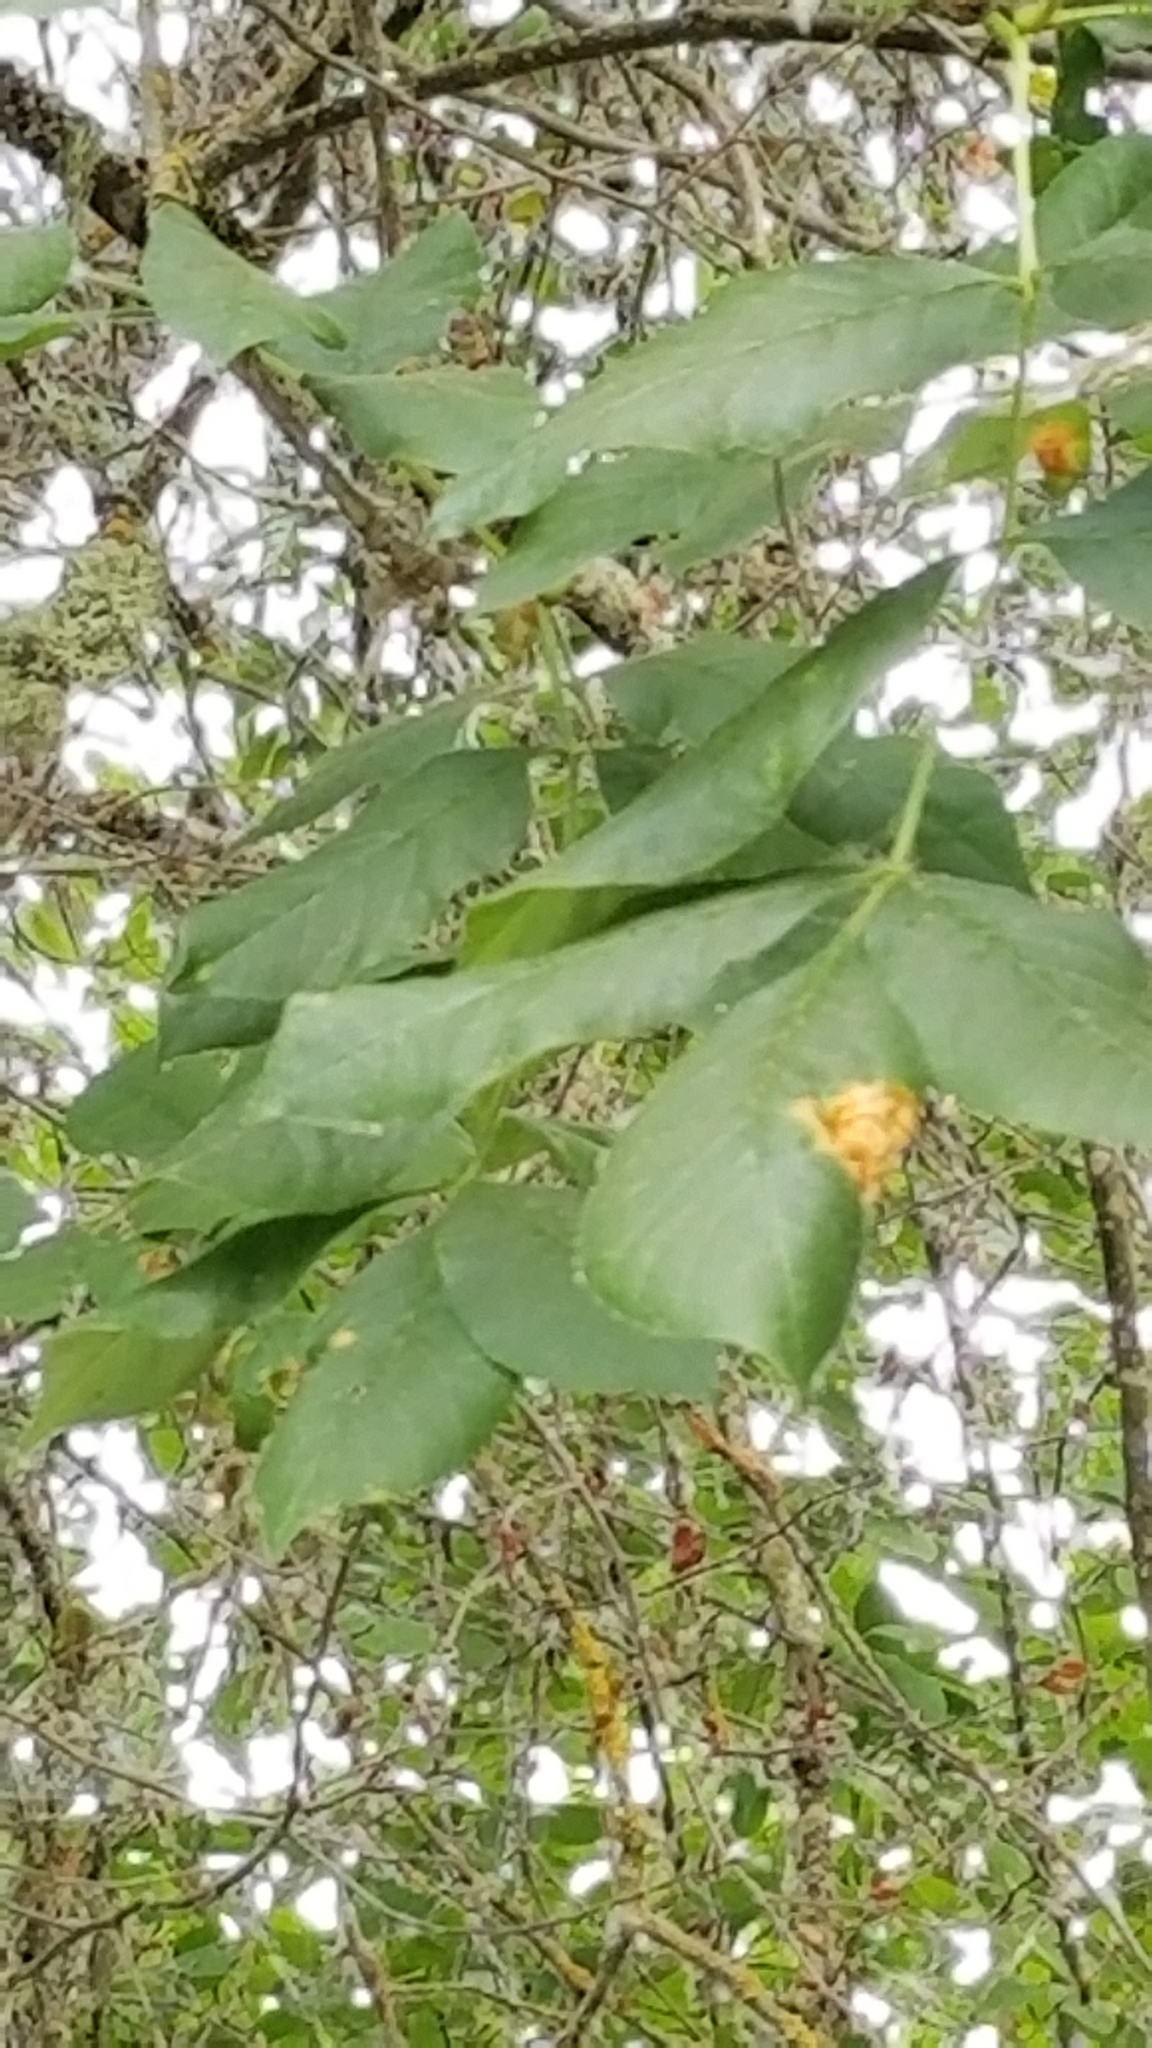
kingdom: Plantae
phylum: Tracheophyta
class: Magnoliopsida
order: Lamiales
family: Oleaceae
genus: Fraxinus
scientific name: Fraxinus latifolia
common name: Oregon ash
